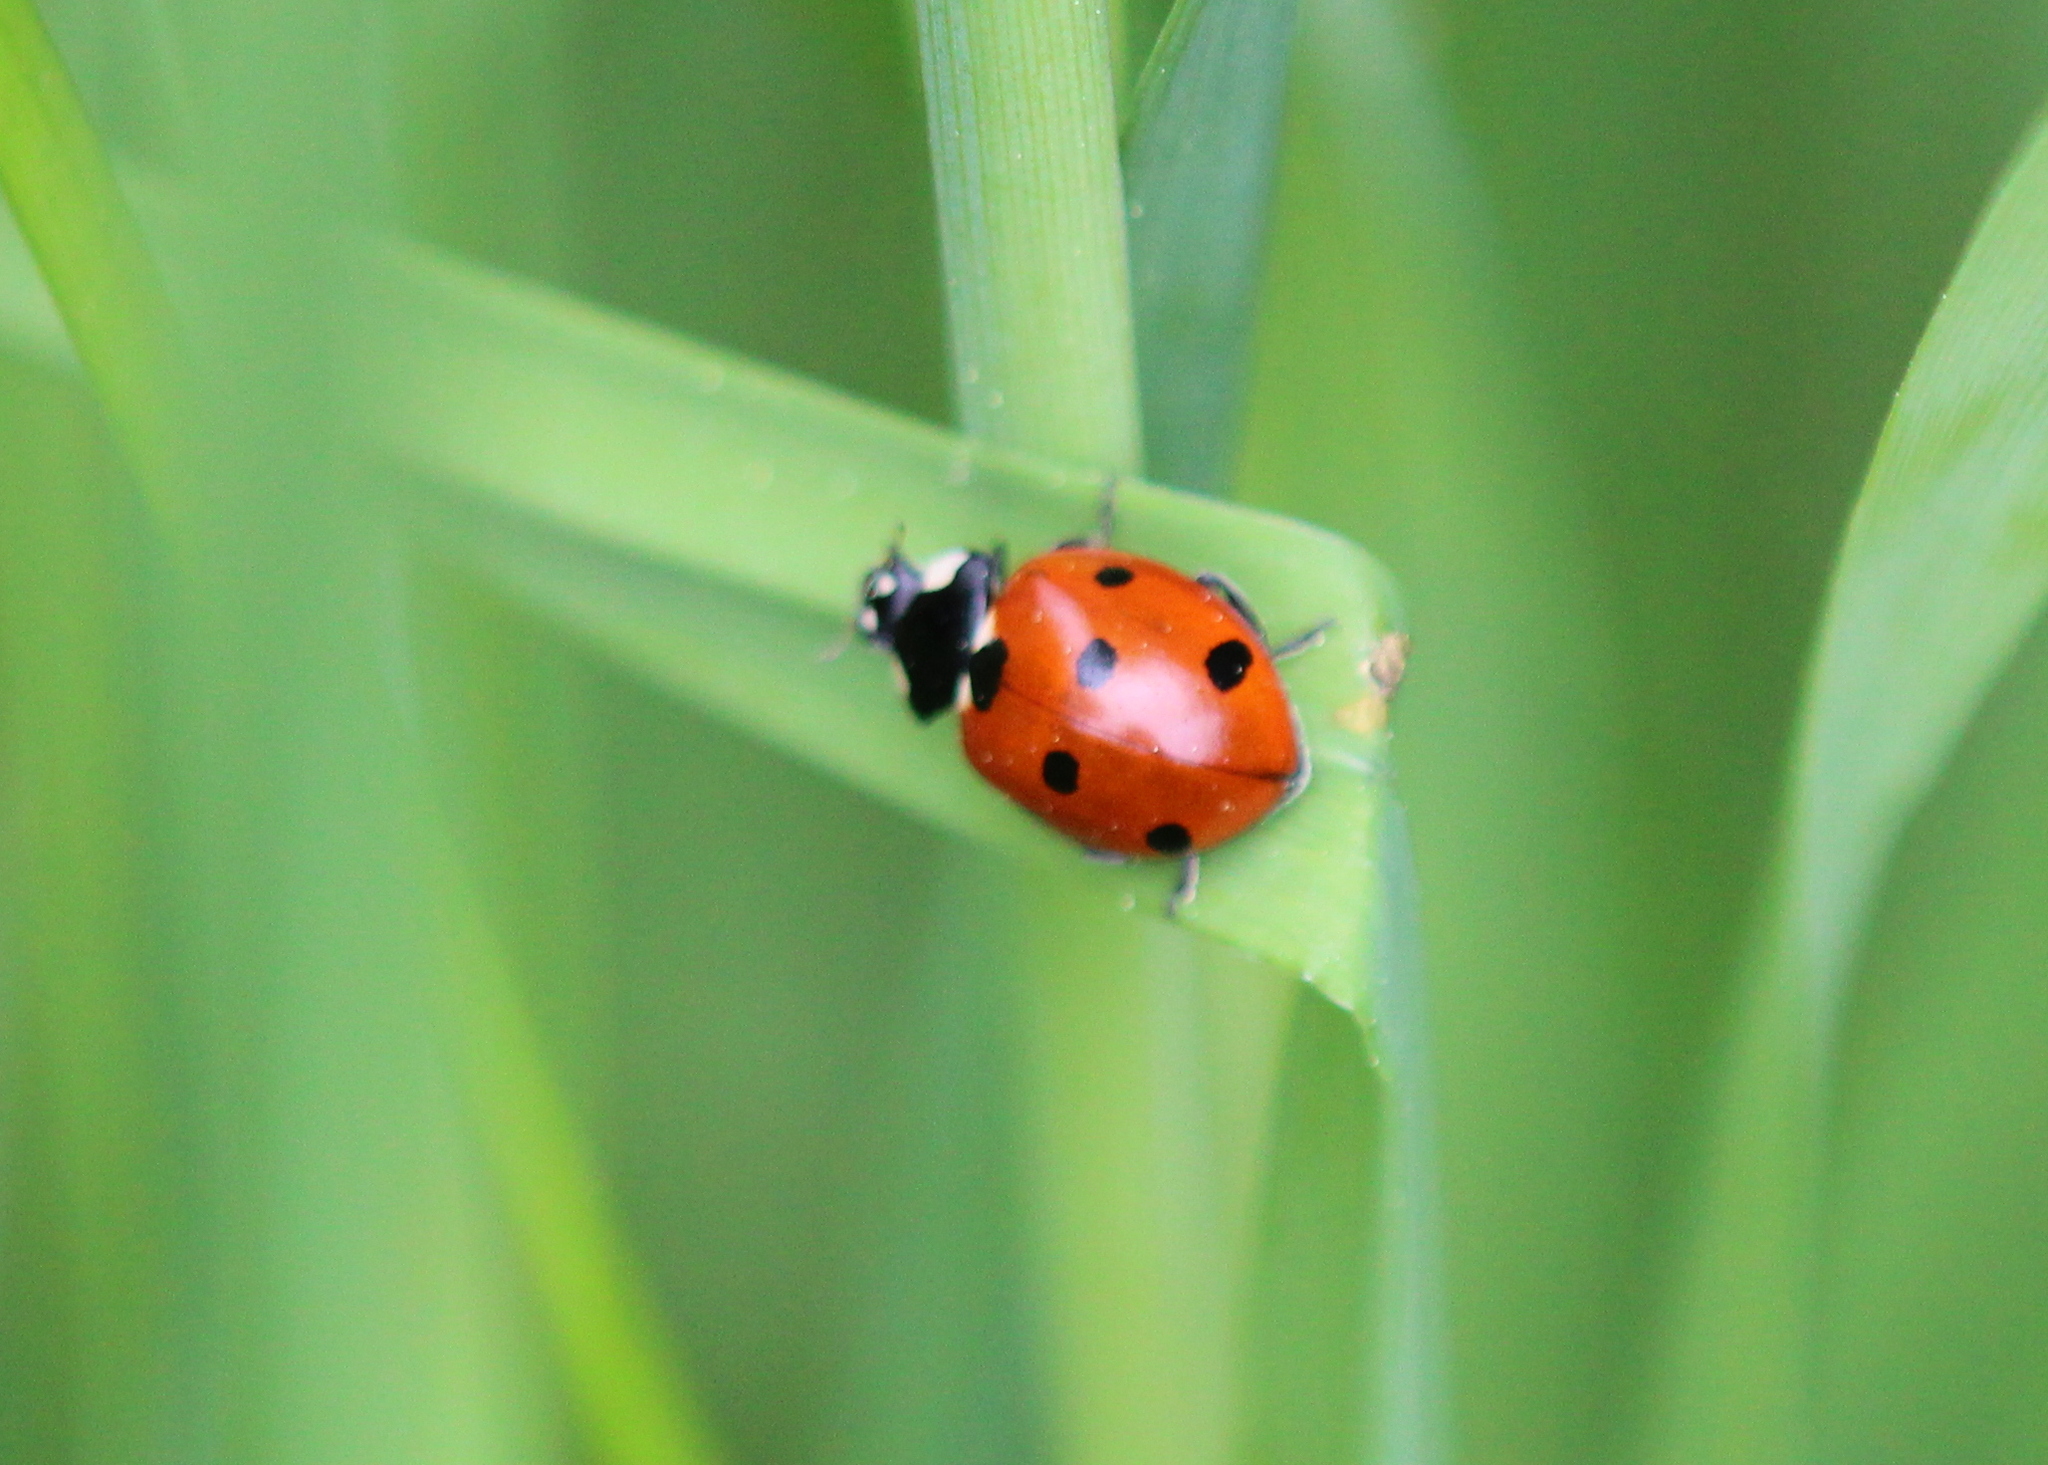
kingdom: Animalia
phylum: Arthropoda
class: Insecta
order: Coleoptera
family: Coccinellidae
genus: Coccinella
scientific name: Coccinella septempunctata
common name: Sevenspotted lady beetle
